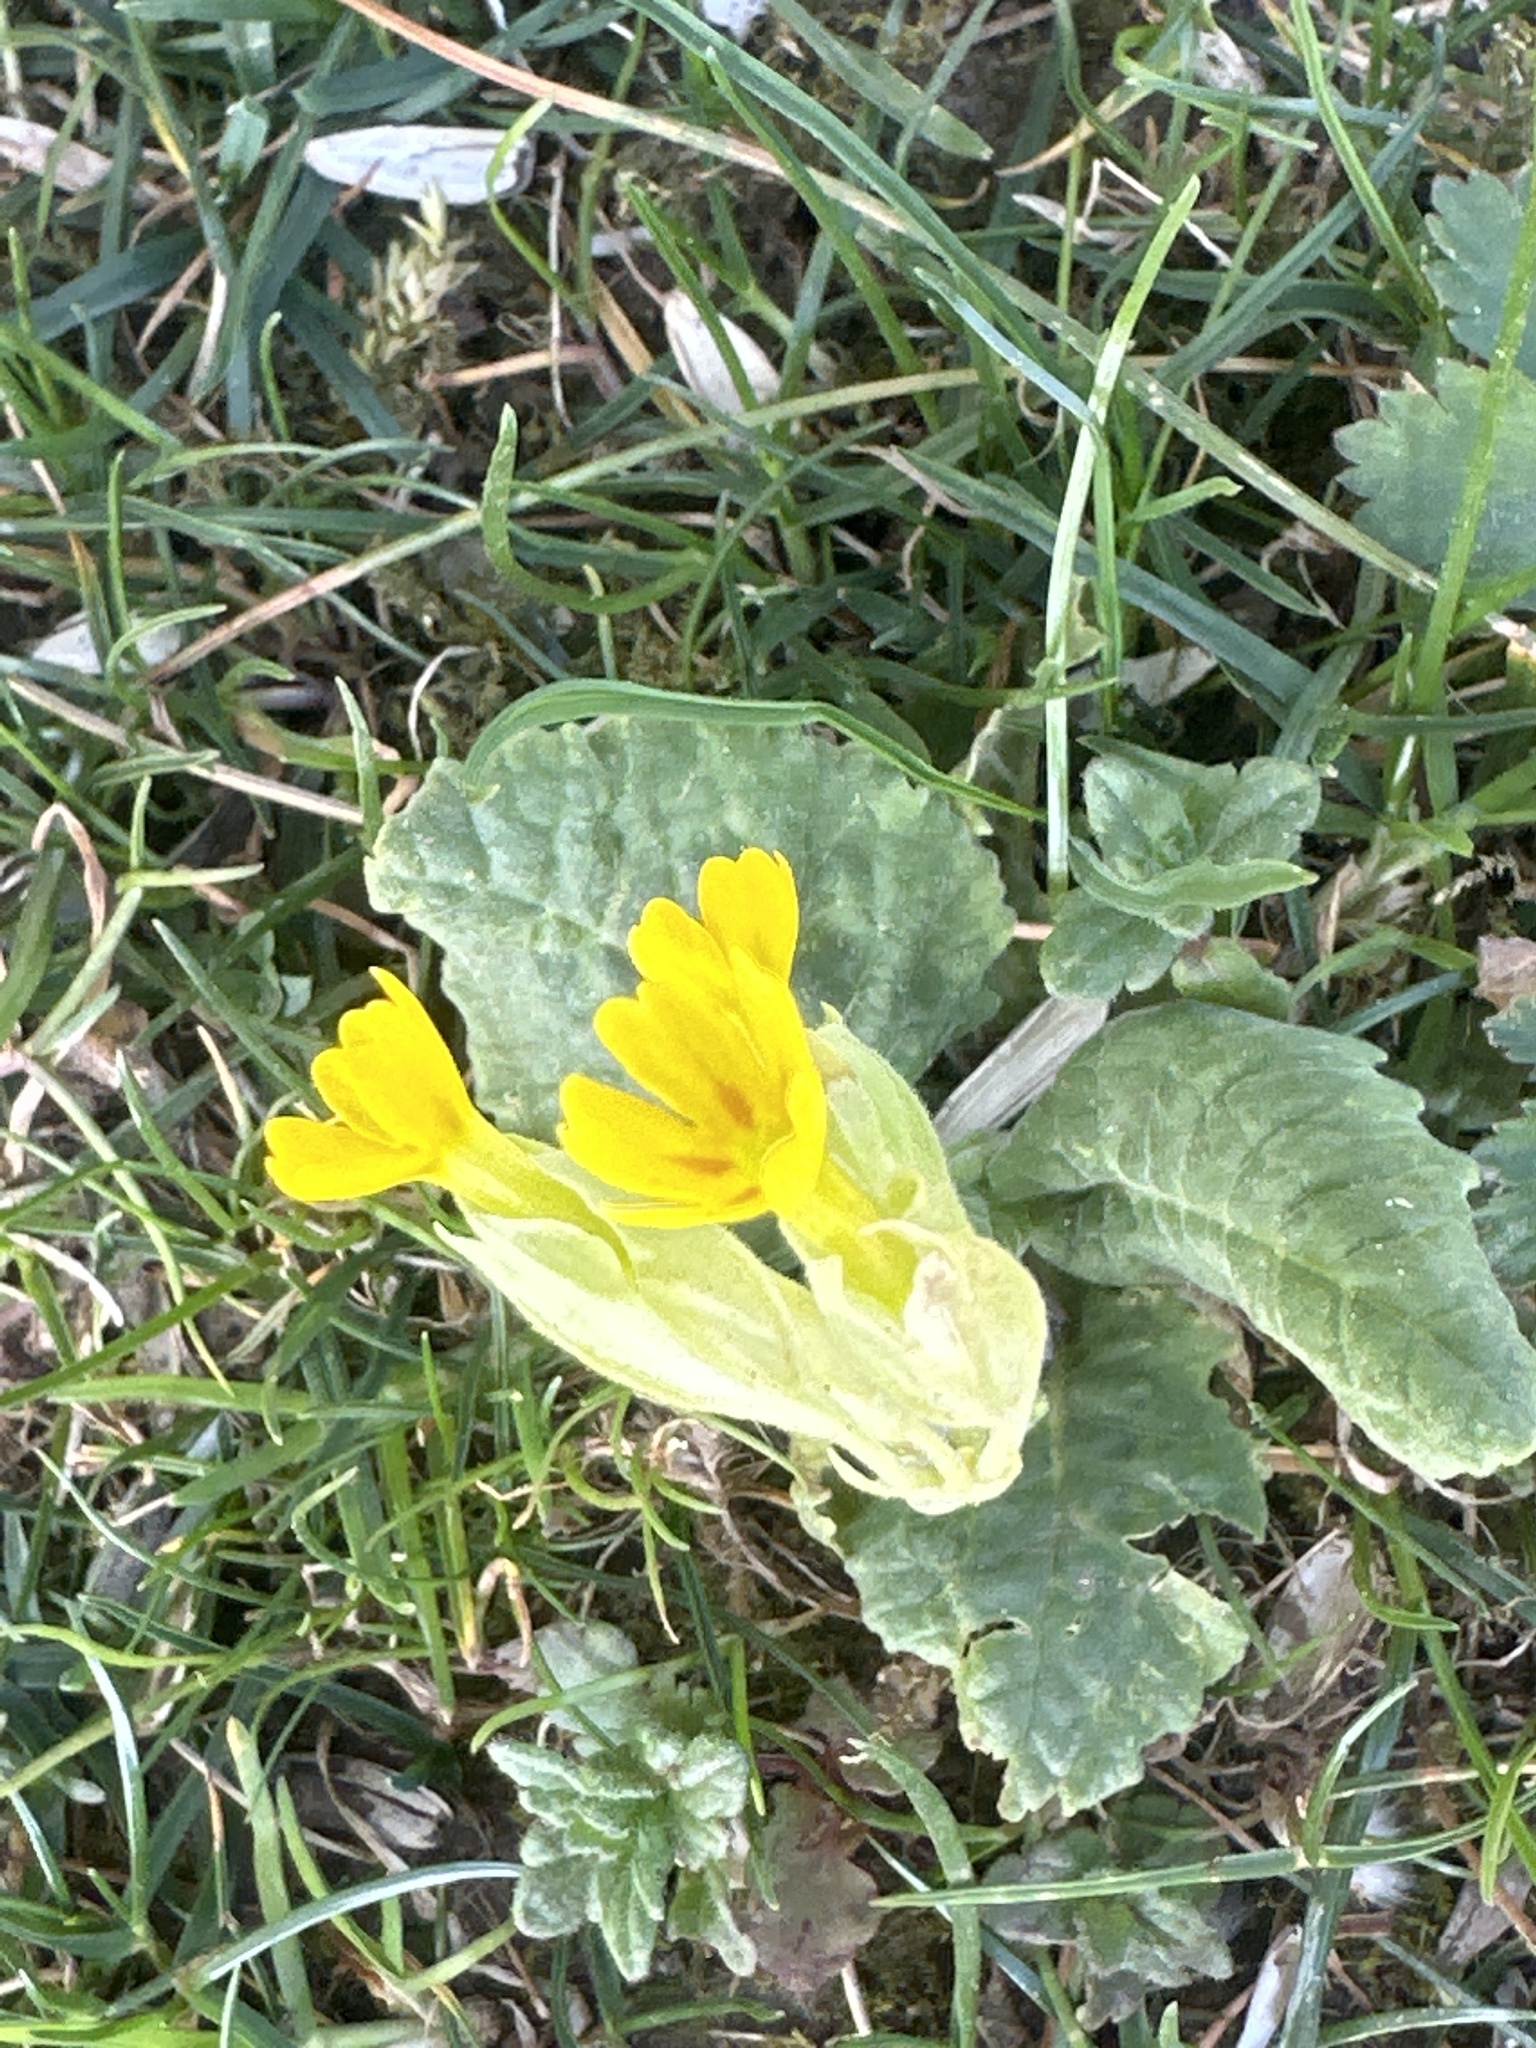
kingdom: Plantae
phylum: Tracheophyta
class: Magnoliopsida
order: Ericales
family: Primulaceae
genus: Primula
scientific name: Primula veris
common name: Cowslip
